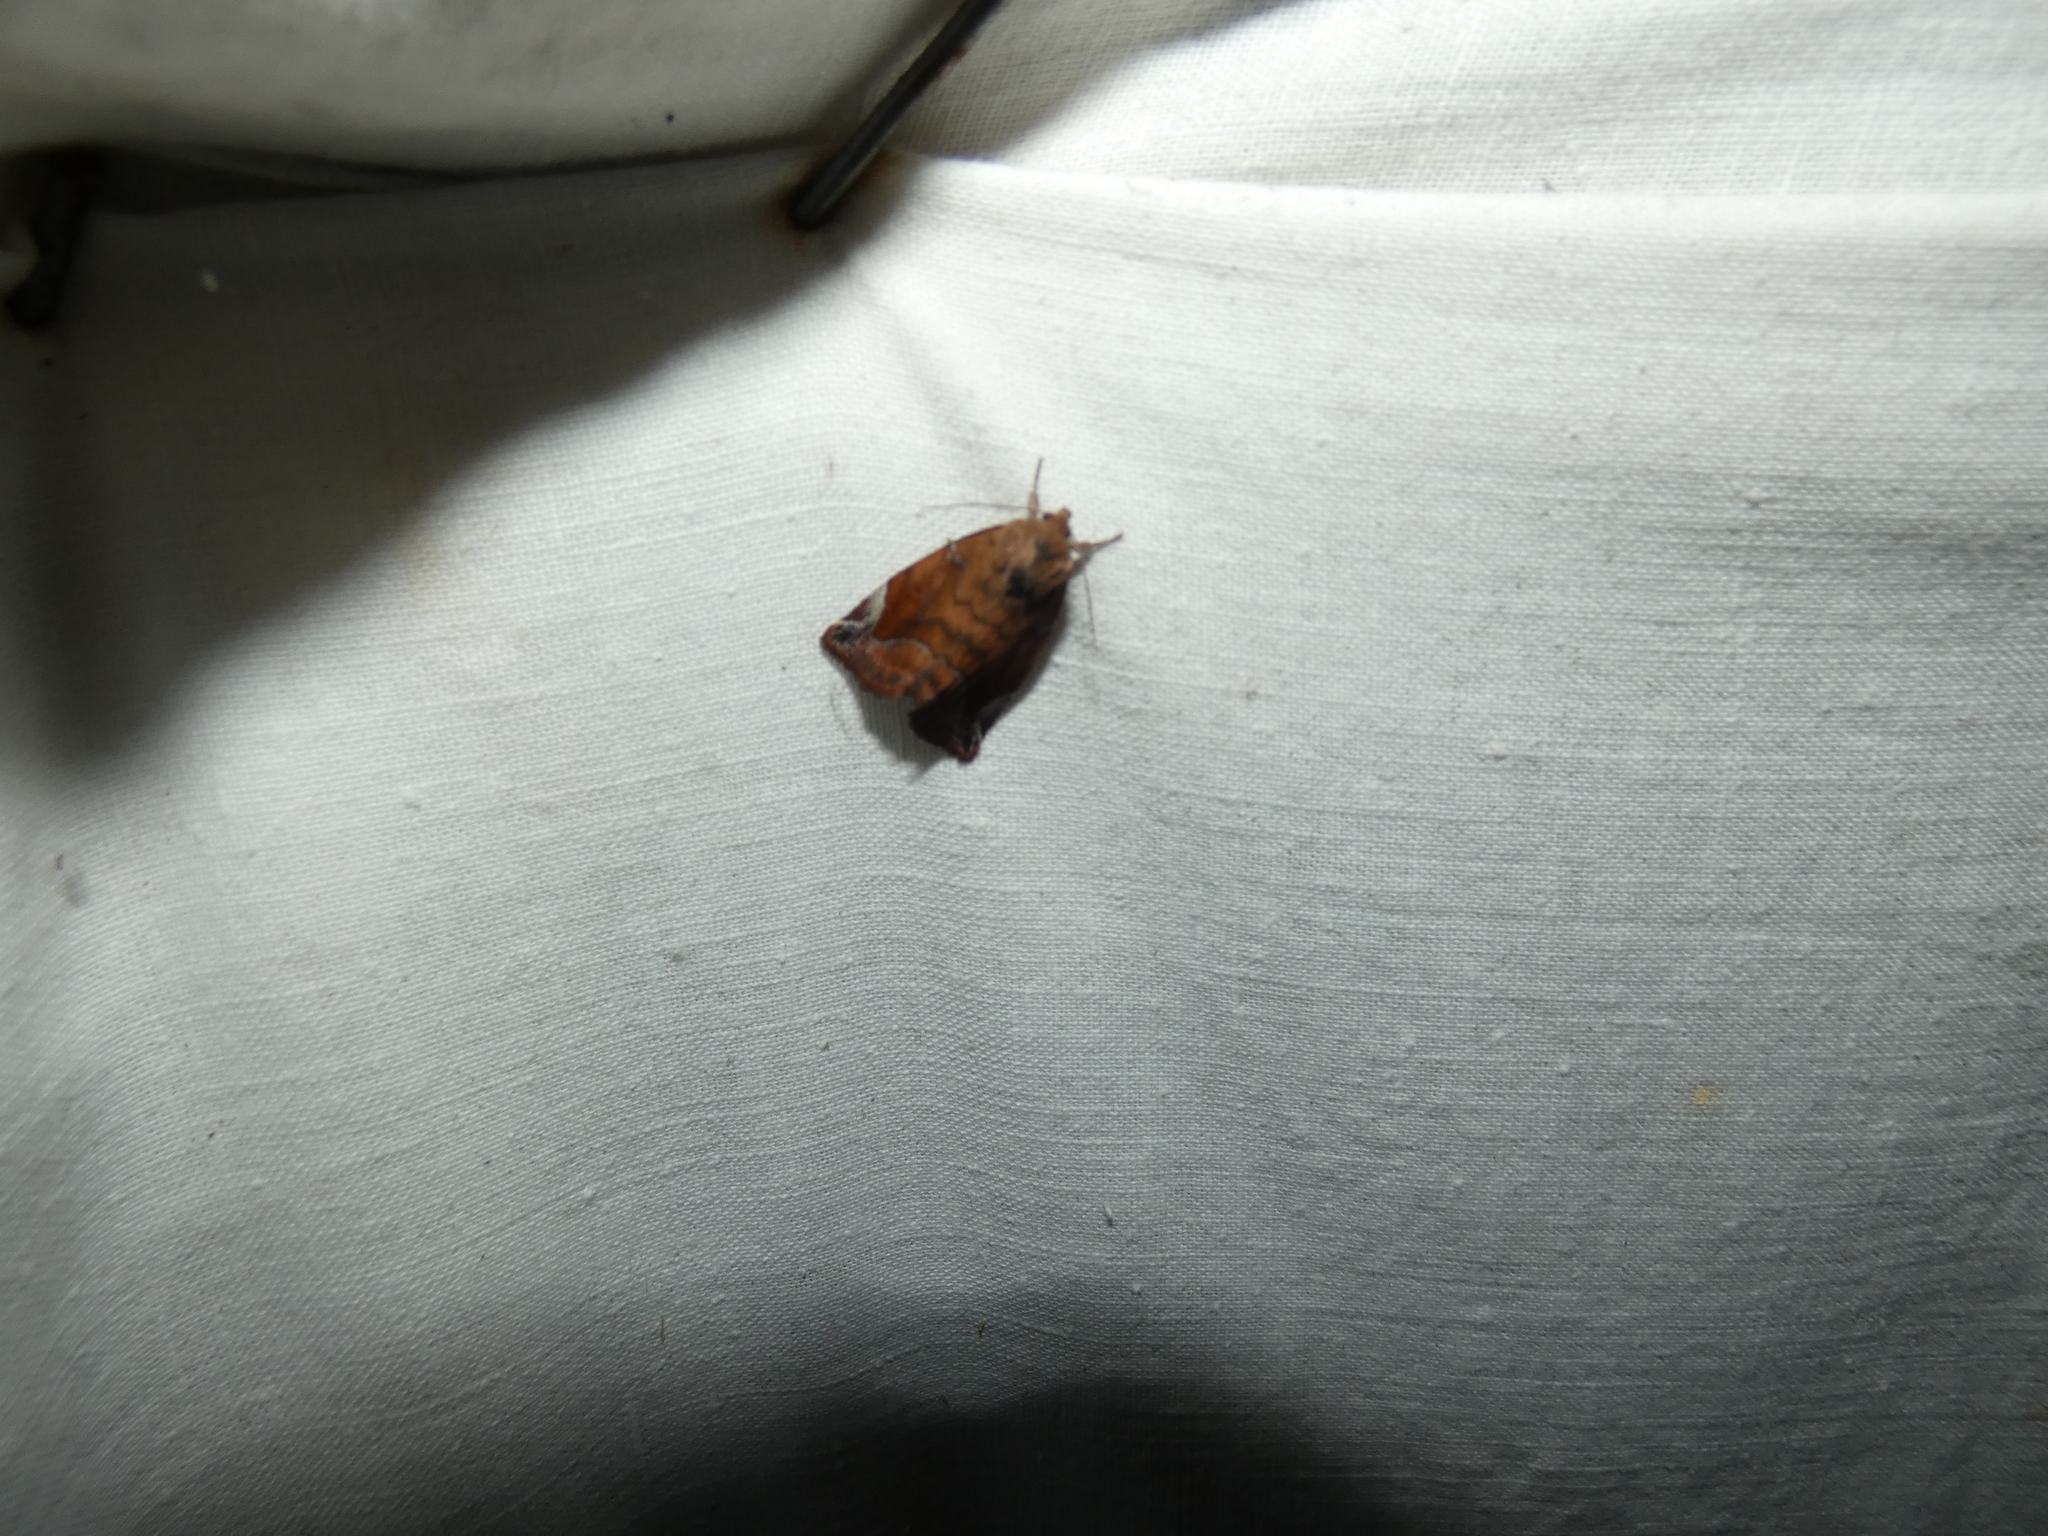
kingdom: Animalia
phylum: Arthropoda
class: Insecta
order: Lepidoptera
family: Noctuidae
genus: Cosmia
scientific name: Cosmia pyralina
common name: Lunar-spotted pinion
